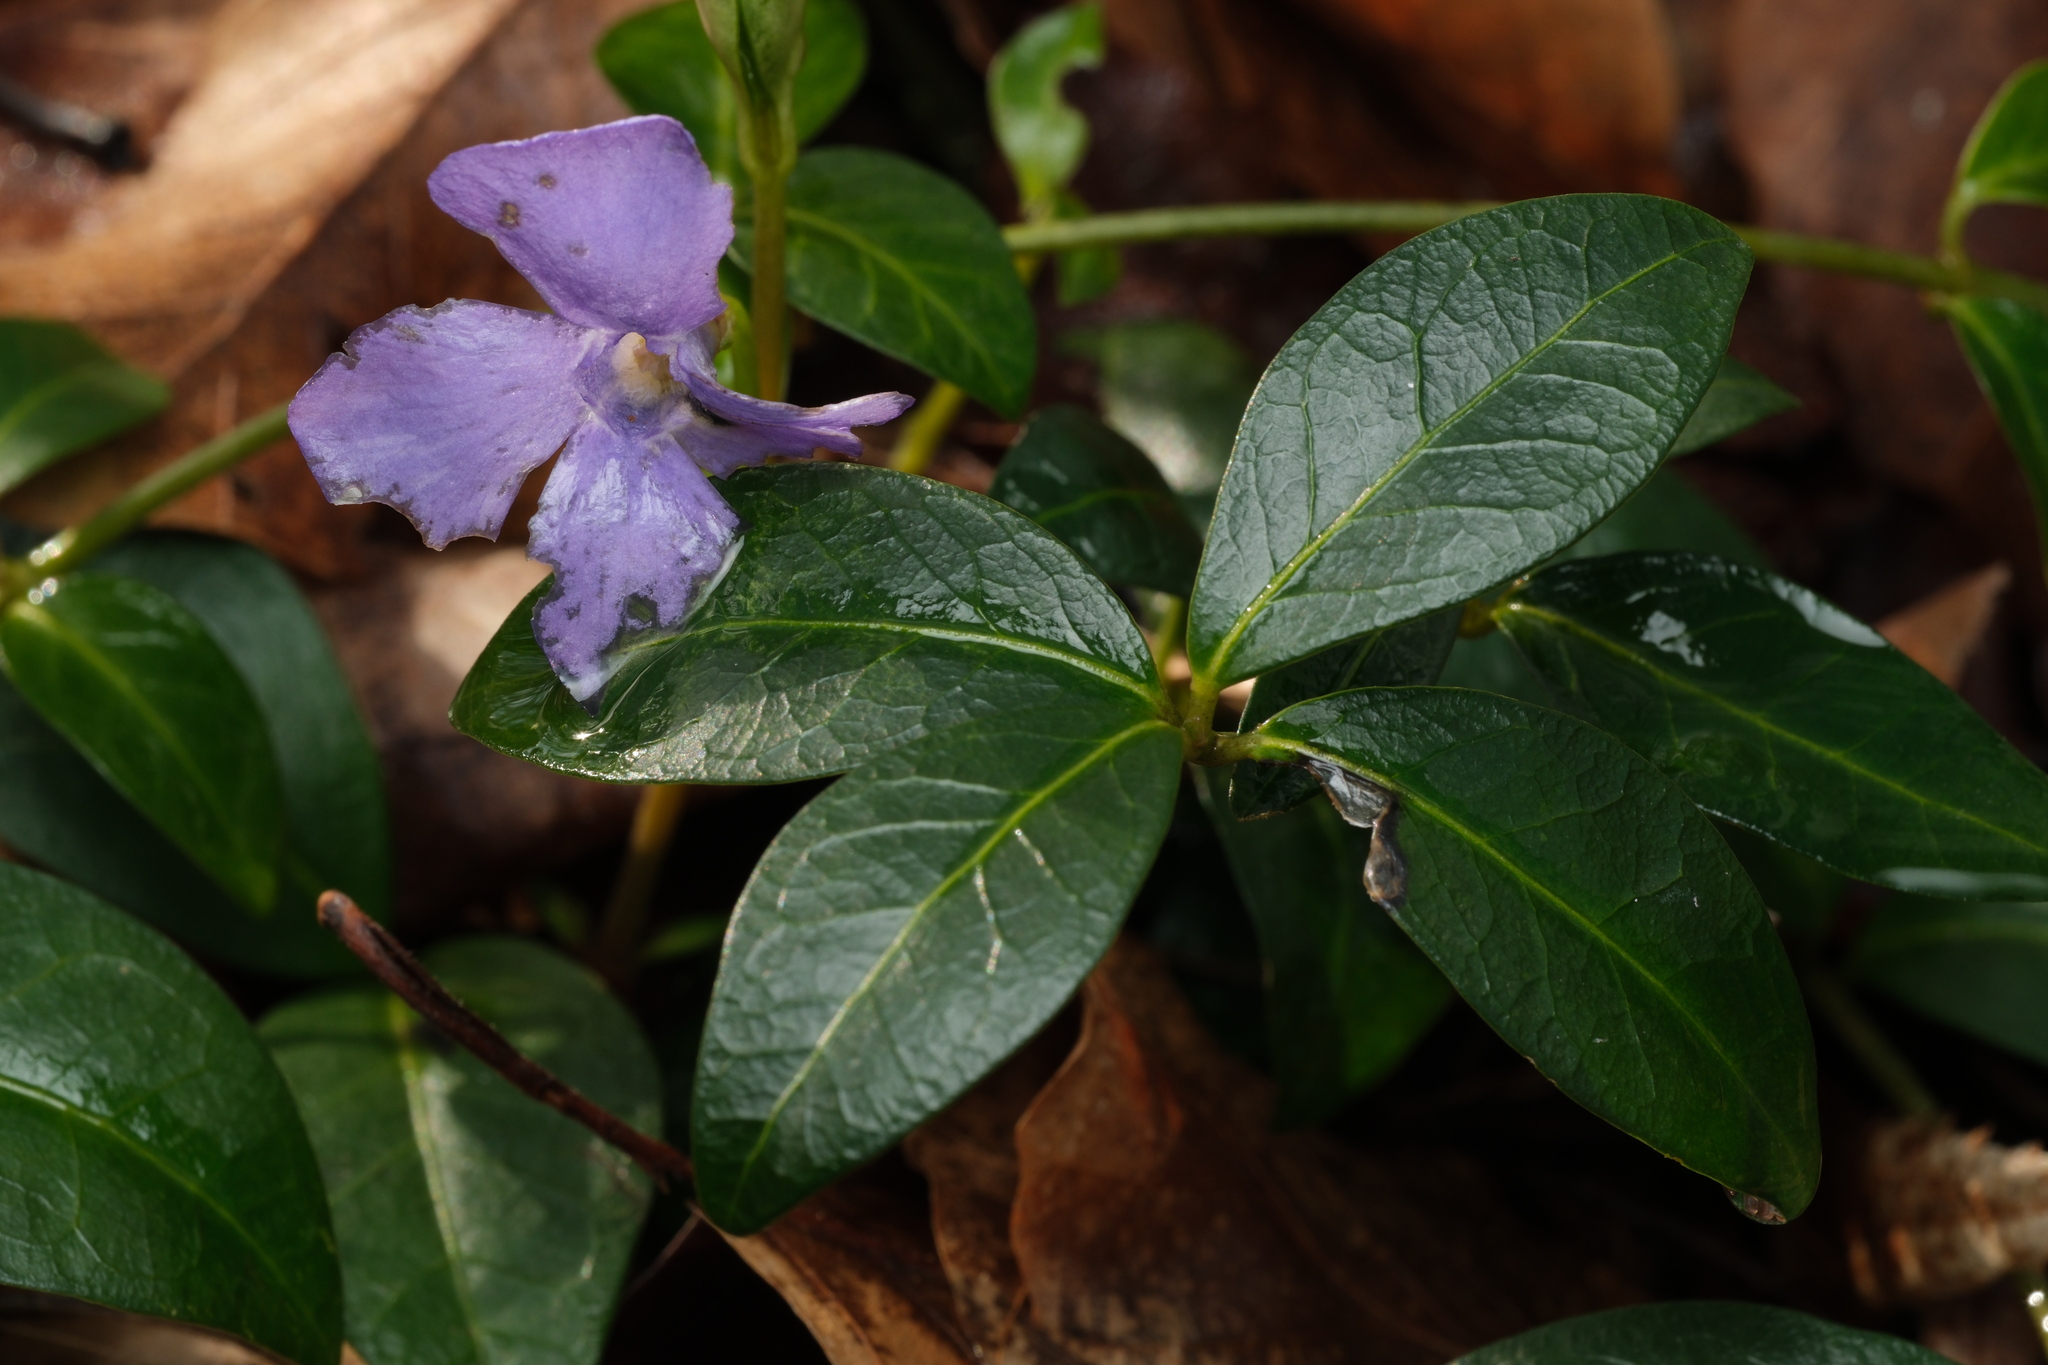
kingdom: Plantae
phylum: Tracheophyta
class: Magnoliopsida
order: Gentianales
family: Apocynaceae
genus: Vinca
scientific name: Vinca minor
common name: Lesser periwinkle
